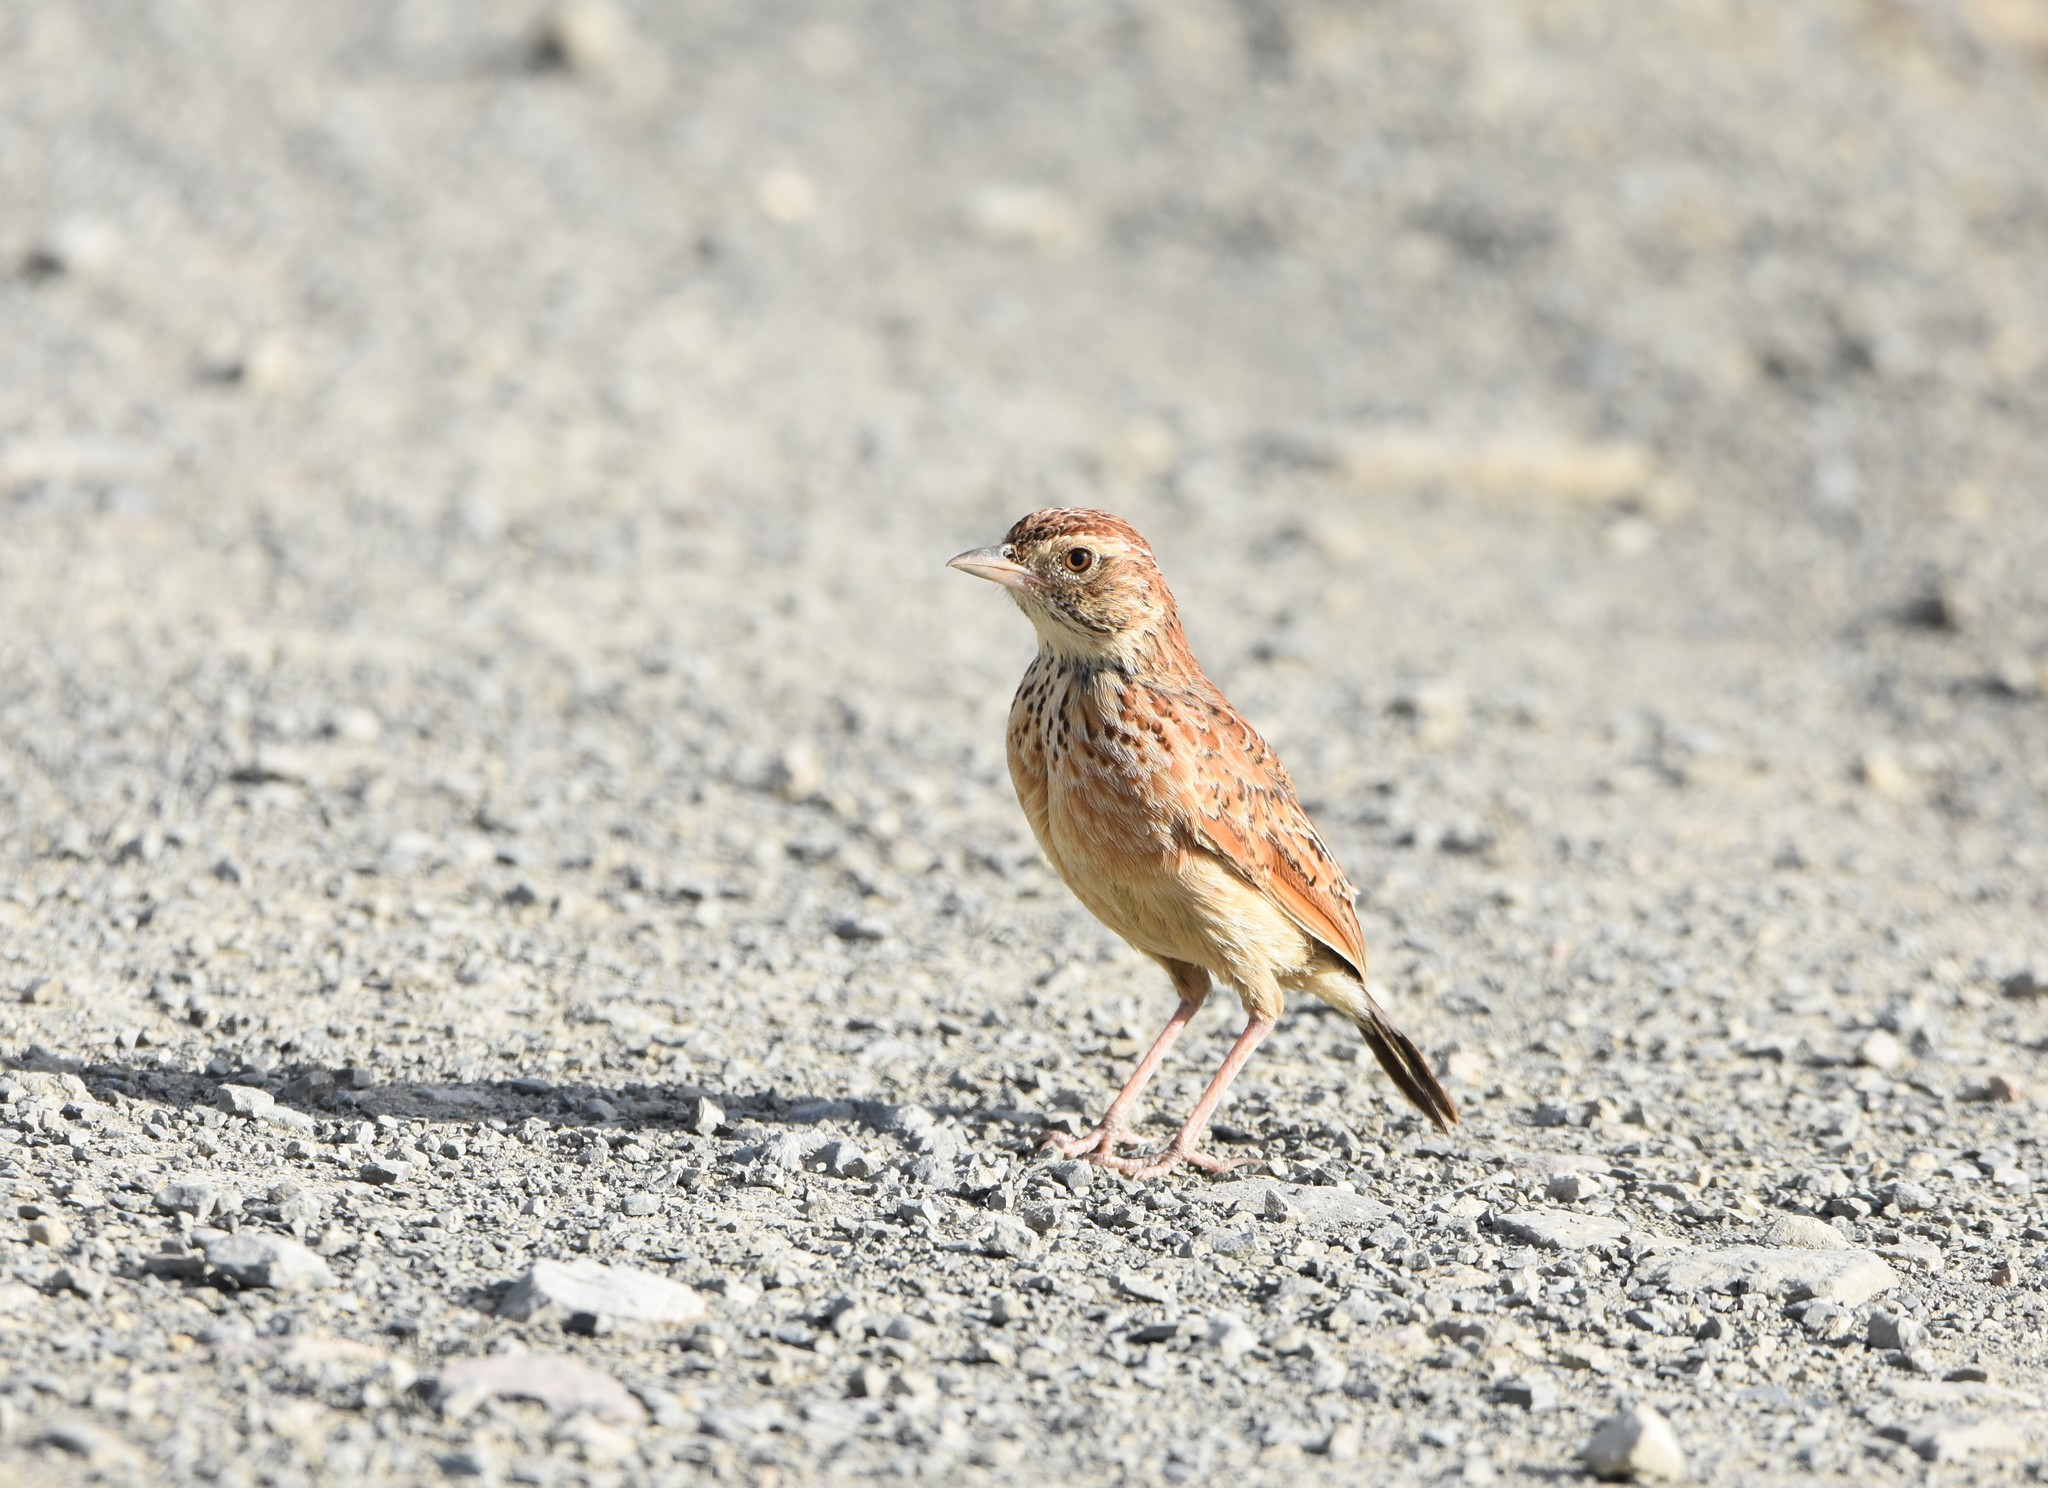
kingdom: Animalia
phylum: Chordata
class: Aves
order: Passeriformes
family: Alaudidae
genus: Mirafra
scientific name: Mirafra fasciolata
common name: Eastern clapper lark
